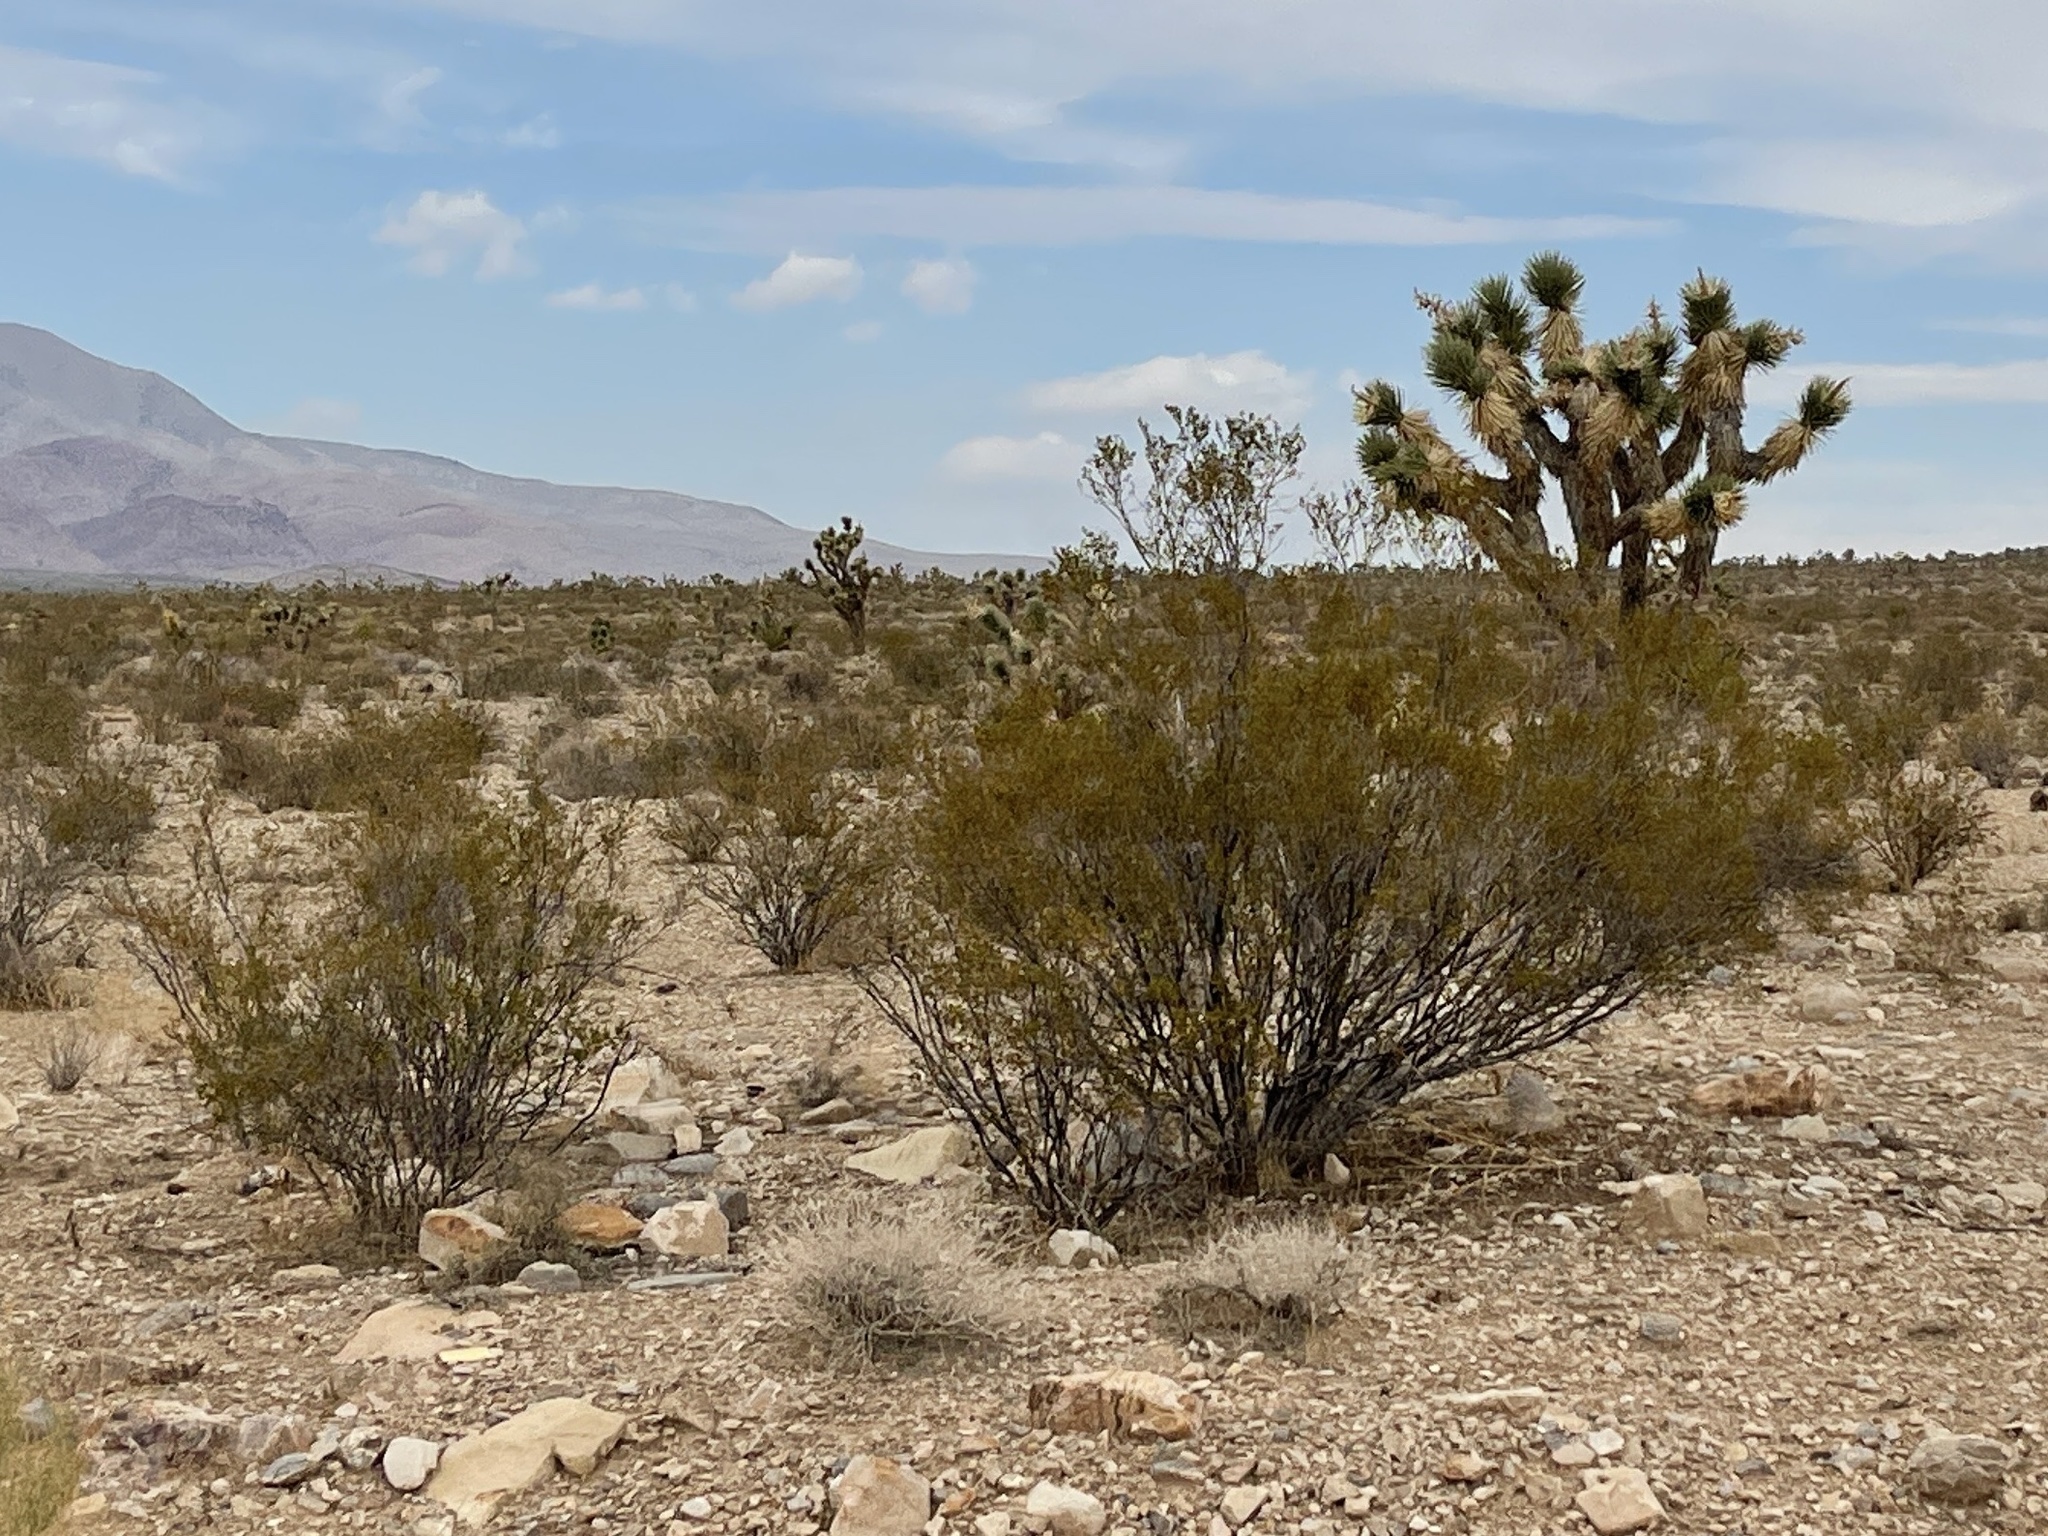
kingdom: Plantae
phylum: Tracheophyta
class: Magnoliopsida
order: Zygophyllales
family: Zygophyllaceae
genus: Larrea
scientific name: Larrea tridentata
